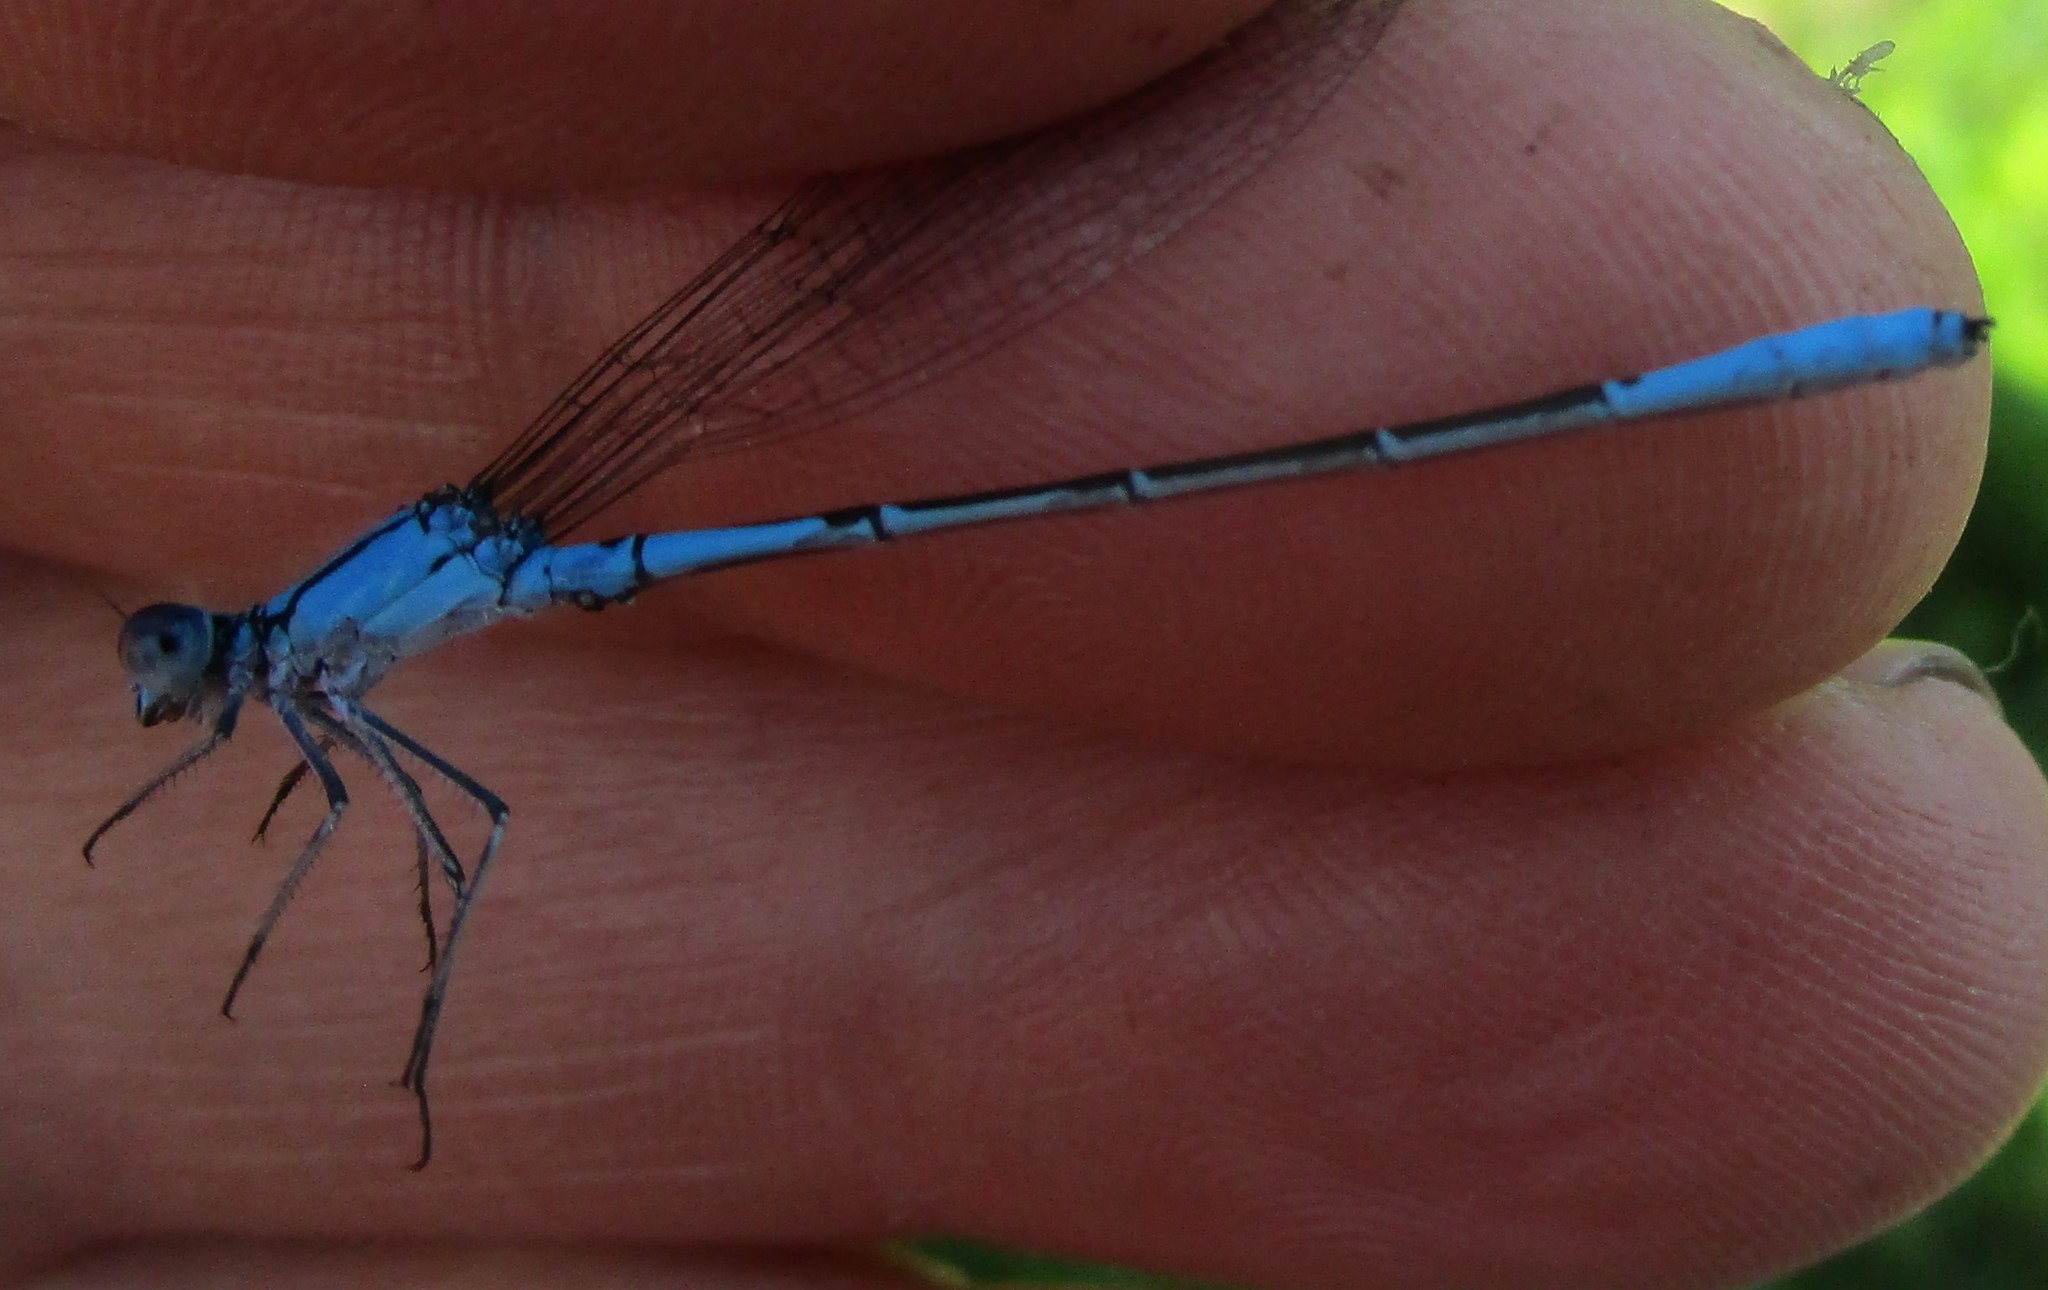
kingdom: Animalia
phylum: Arthropoda
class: Insecta
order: Odonata
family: Coenagrionidae
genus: Enallagma
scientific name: Enallagma aspersum
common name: Azure bluet
